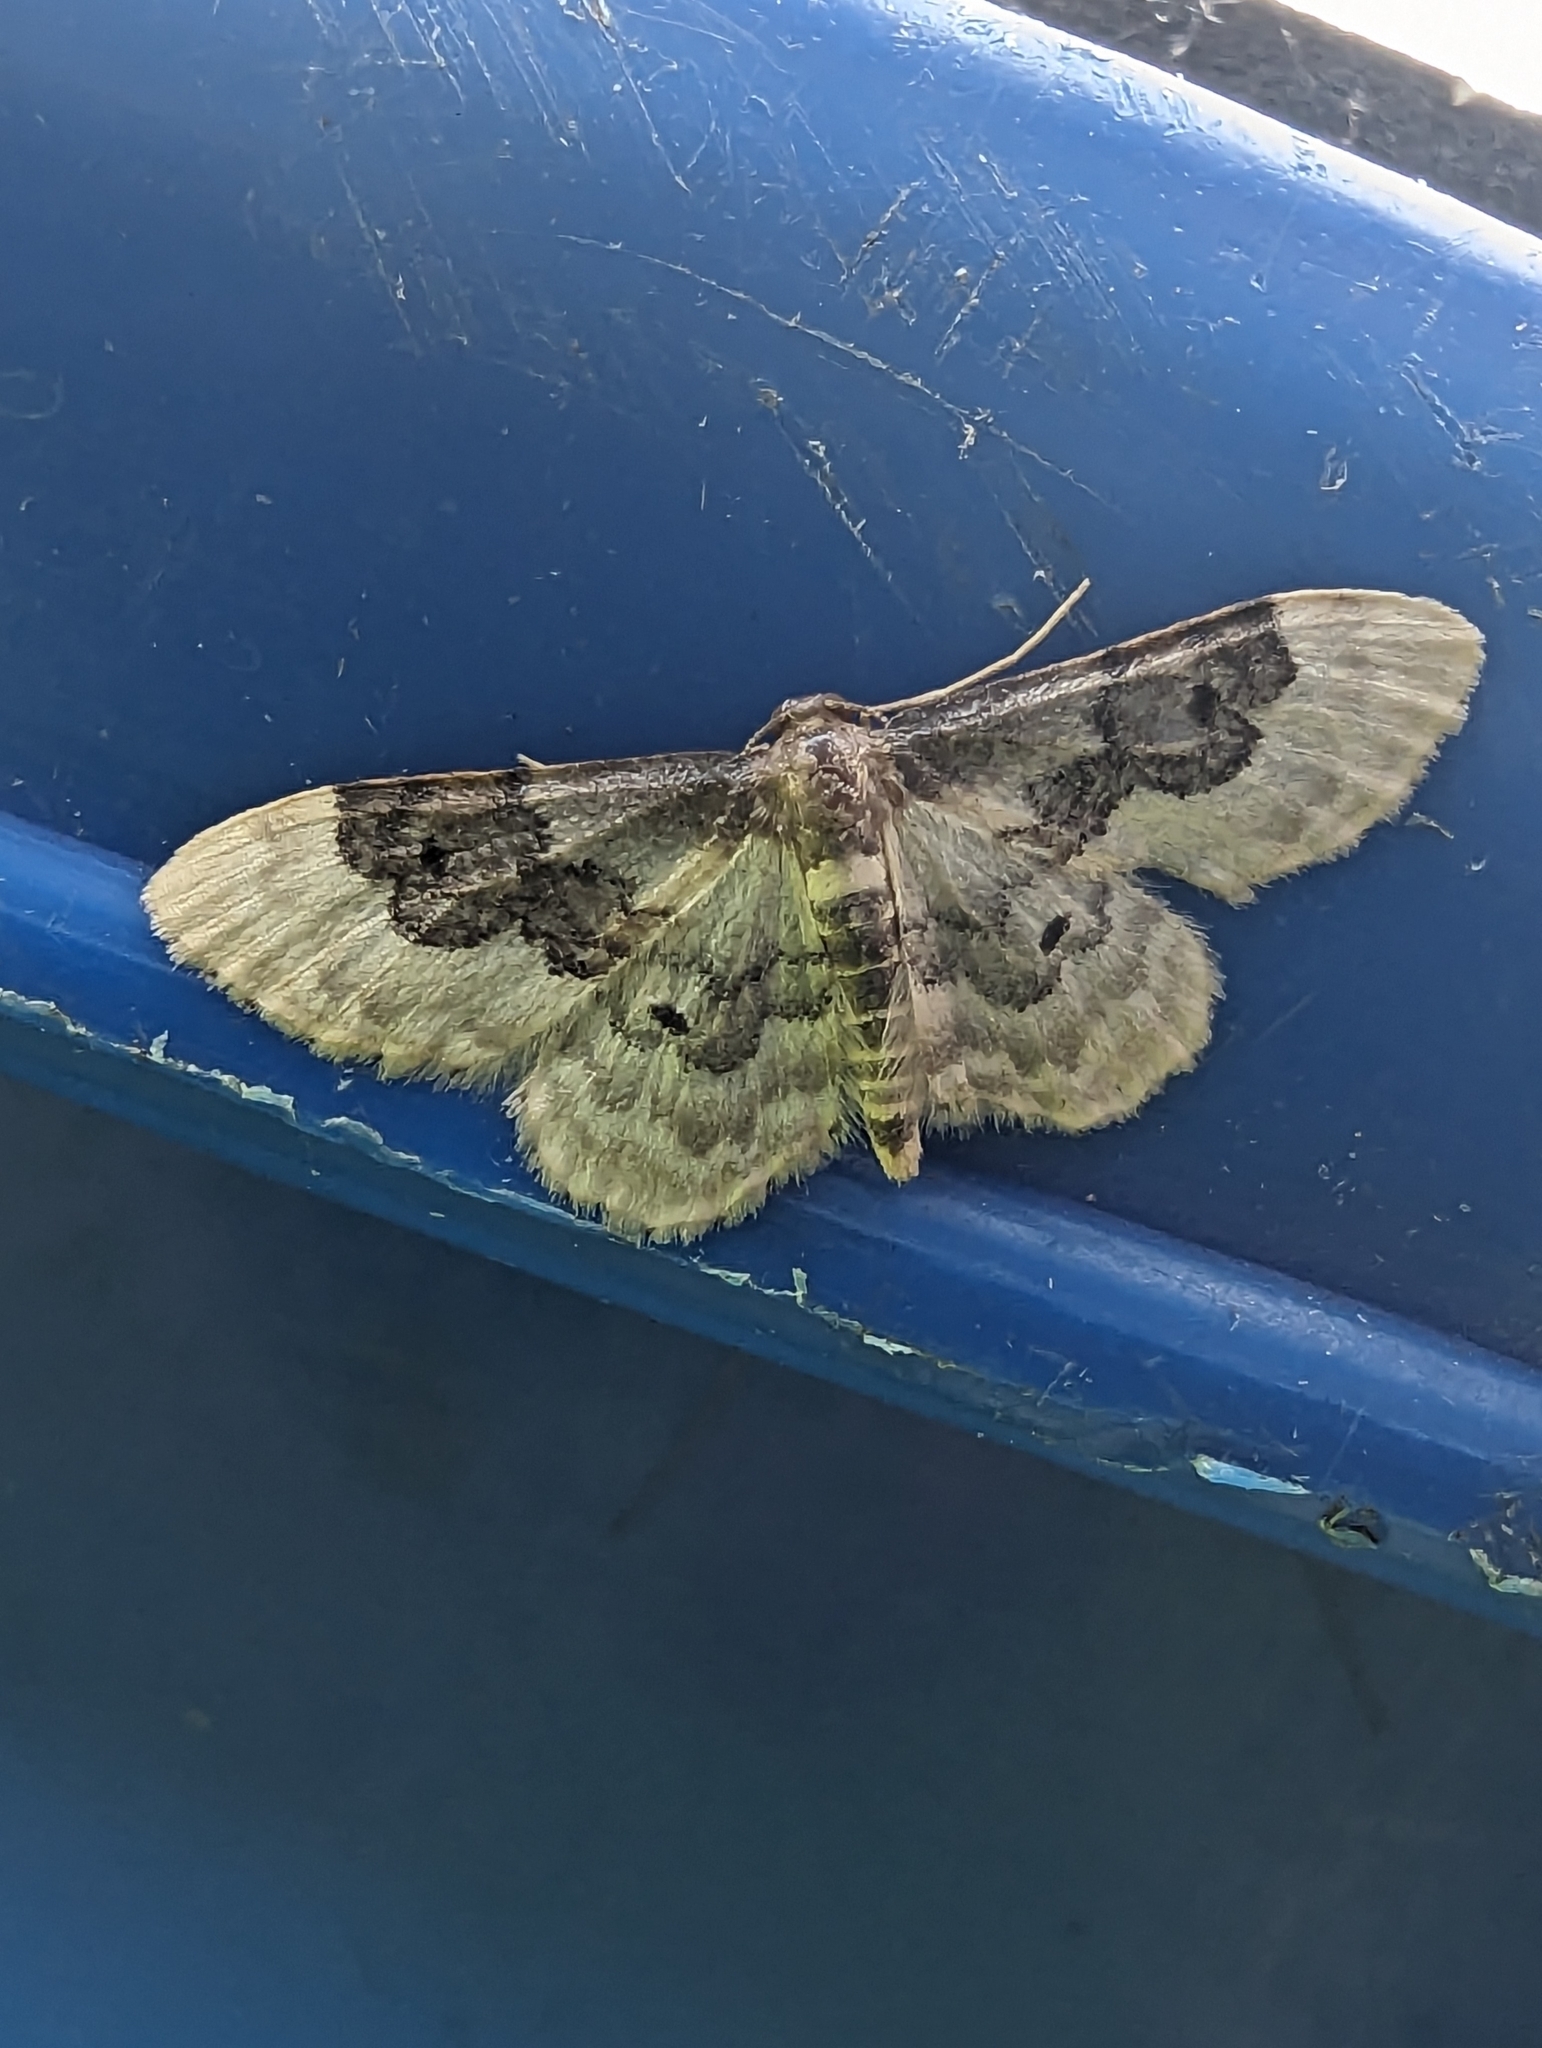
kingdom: Animalia
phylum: Arthropoda
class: Insecta
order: Lepidoptera
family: Geometridae
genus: Idaea
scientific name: Idaea rusticata
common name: Least carpet
